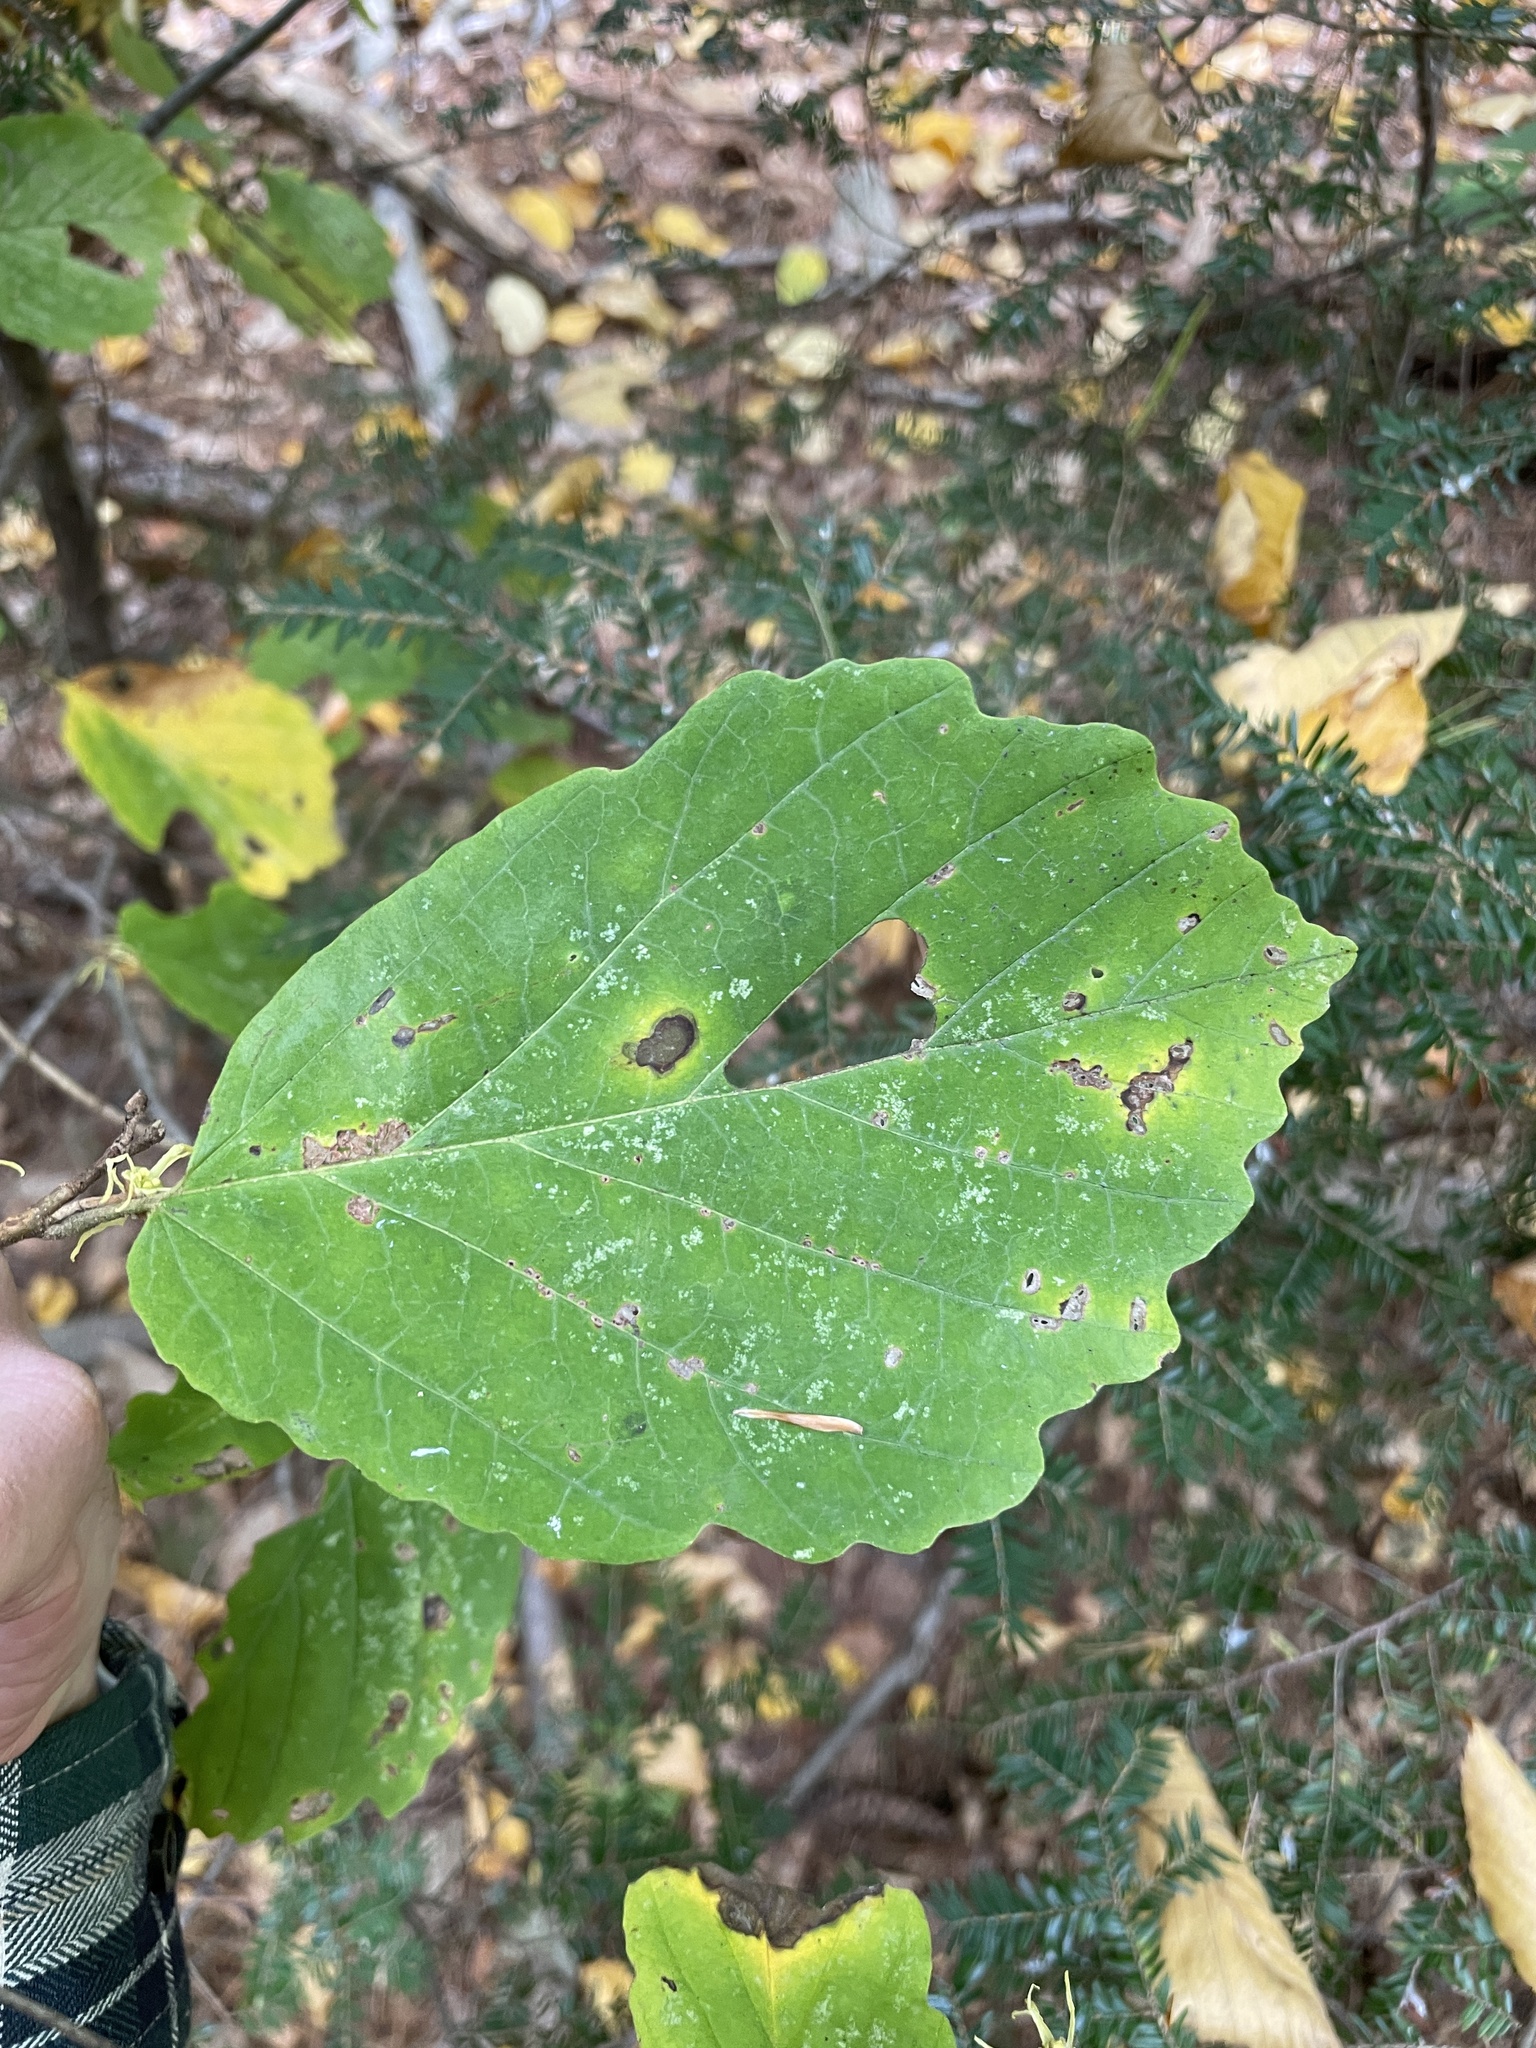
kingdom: Plantae
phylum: Tracheophyta
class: Magnoliopsida
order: Saxifragales
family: Hamamelidaceae
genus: Hamamelis
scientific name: Hamamelis virginiana
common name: Witch-hazel
